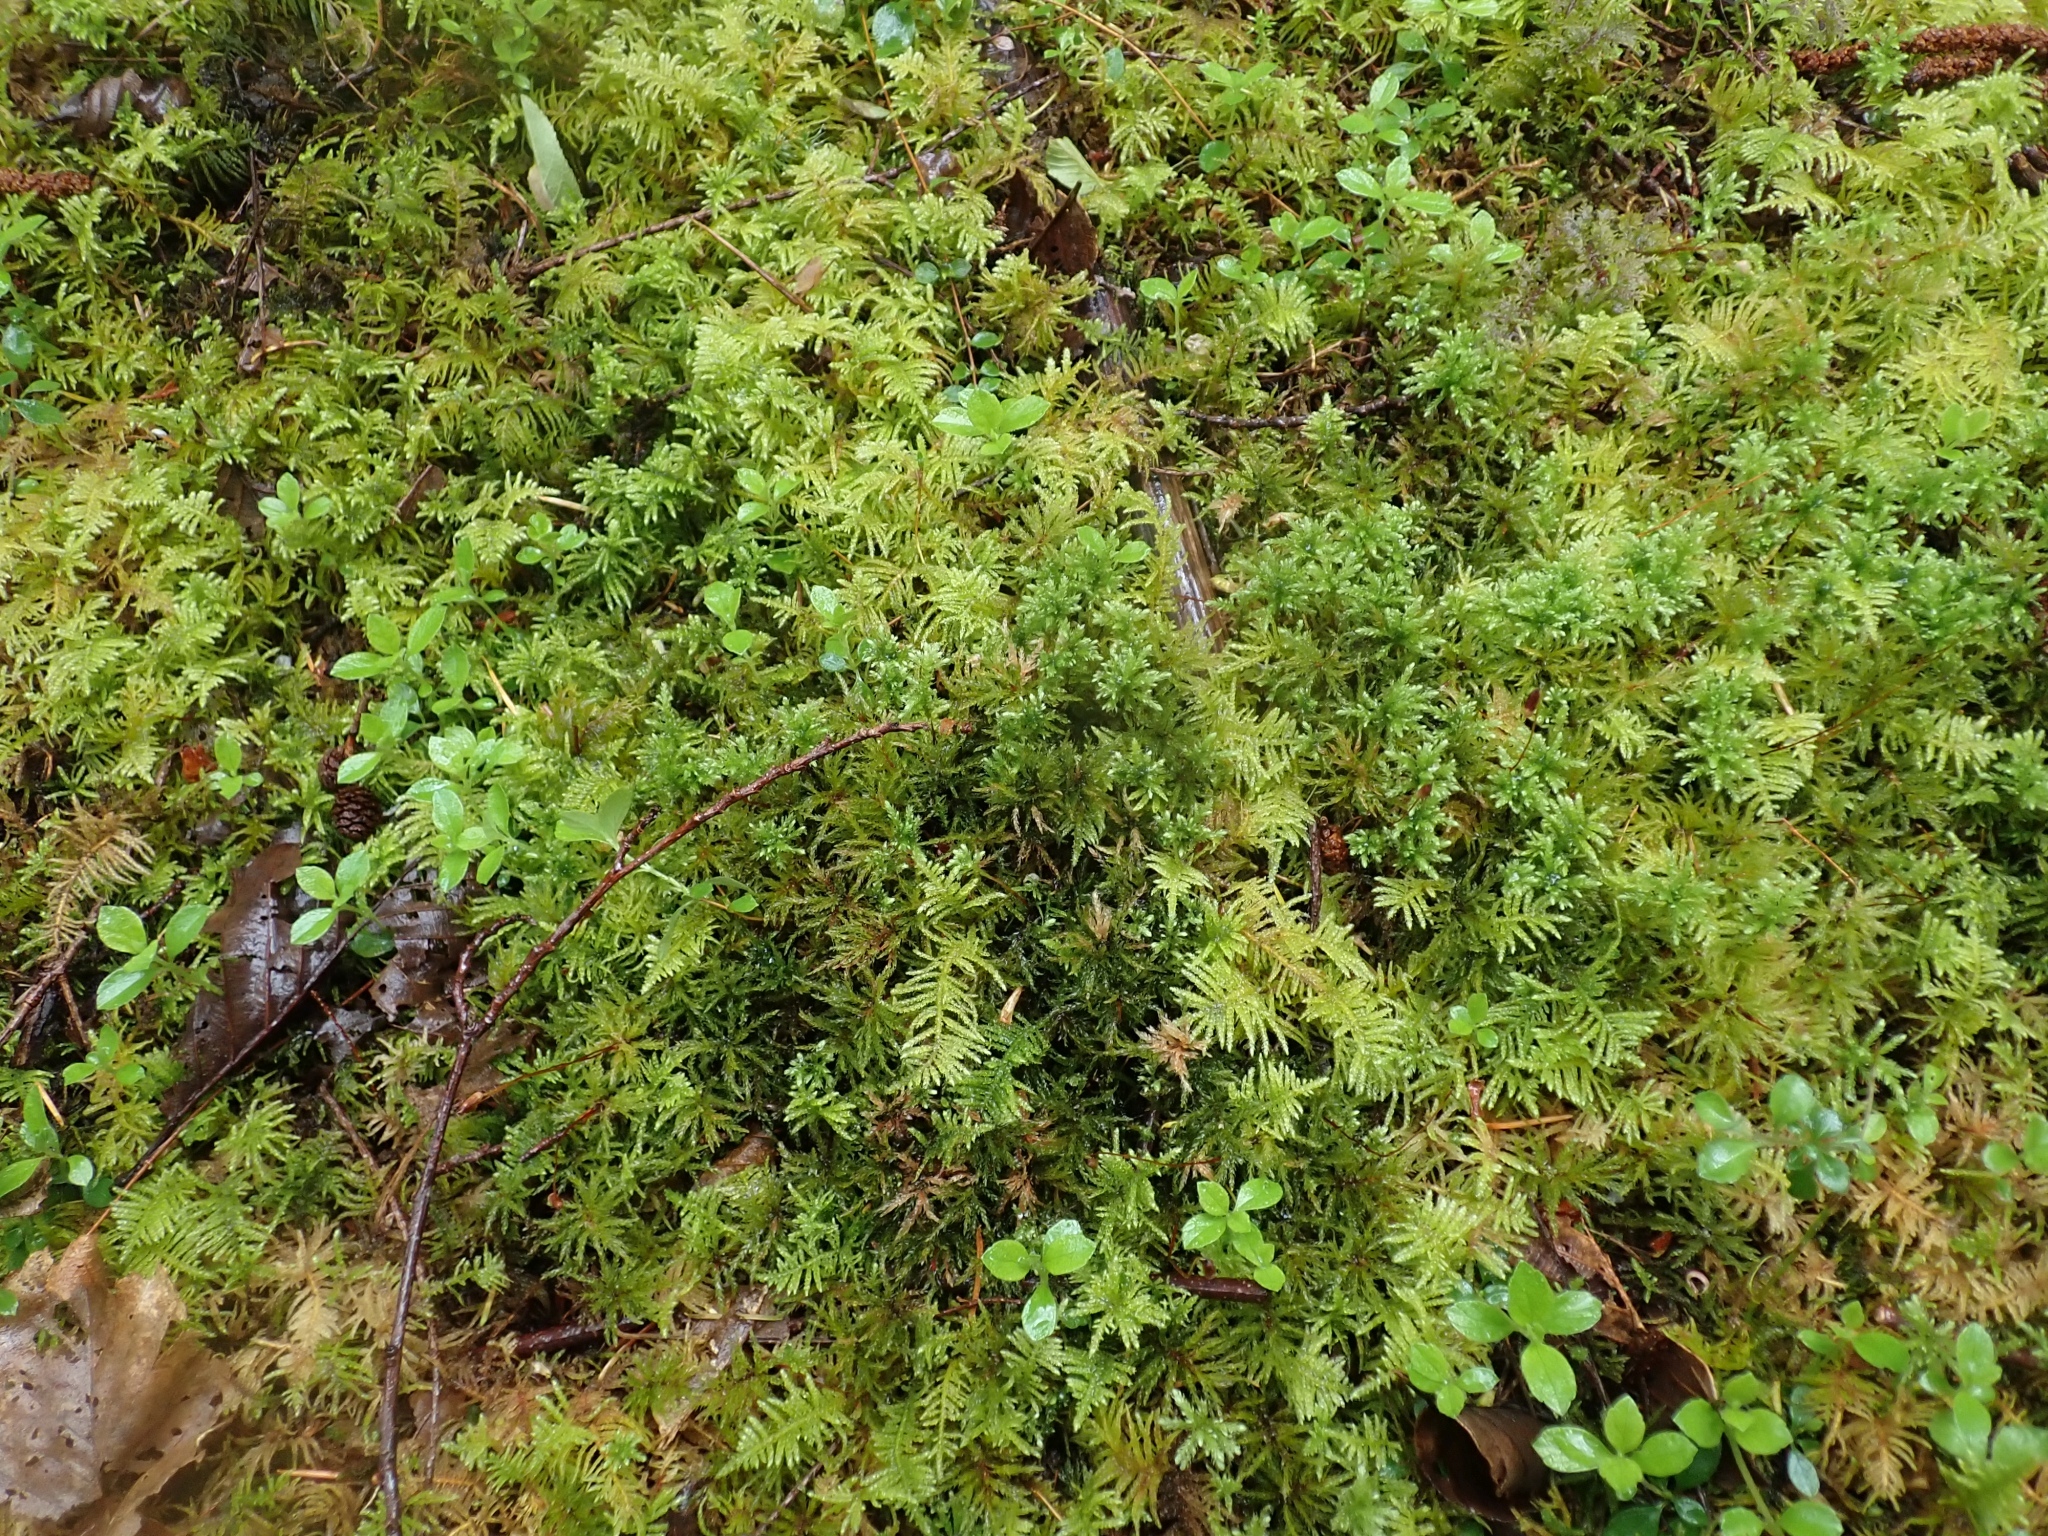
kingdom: Plantae
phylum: Bryophyta
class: Bryopsida
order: Bryales
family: Mniaceae
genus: Leucolepis
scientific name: Leucolepis acanthoneura
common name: Leucolepis umbrella moss
